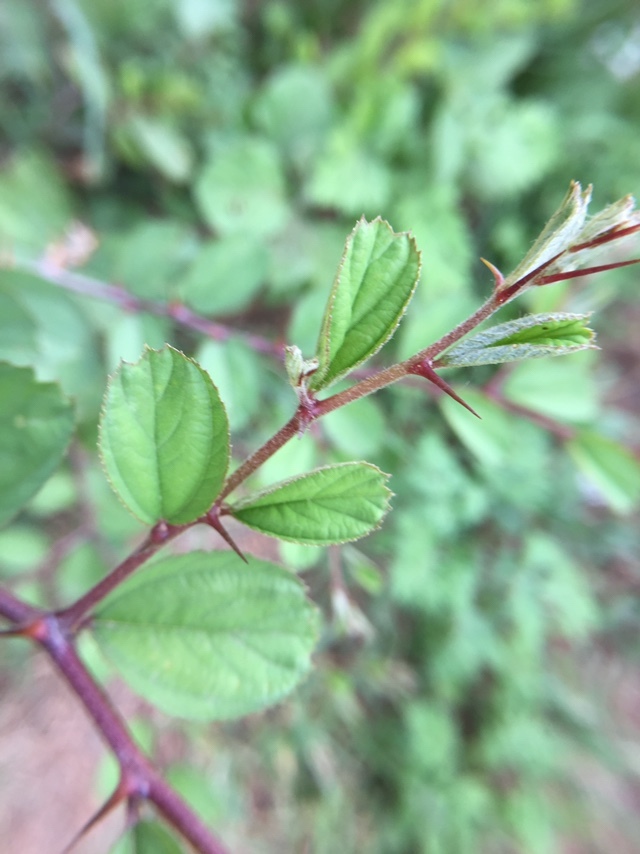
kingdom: Plantae
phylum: Tracheophyta
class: Magnoliopsida
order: Rosales
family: Rhamnaceae
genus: Ziziphus
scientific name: Ziziphus mauritiana
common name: Indian jujube
